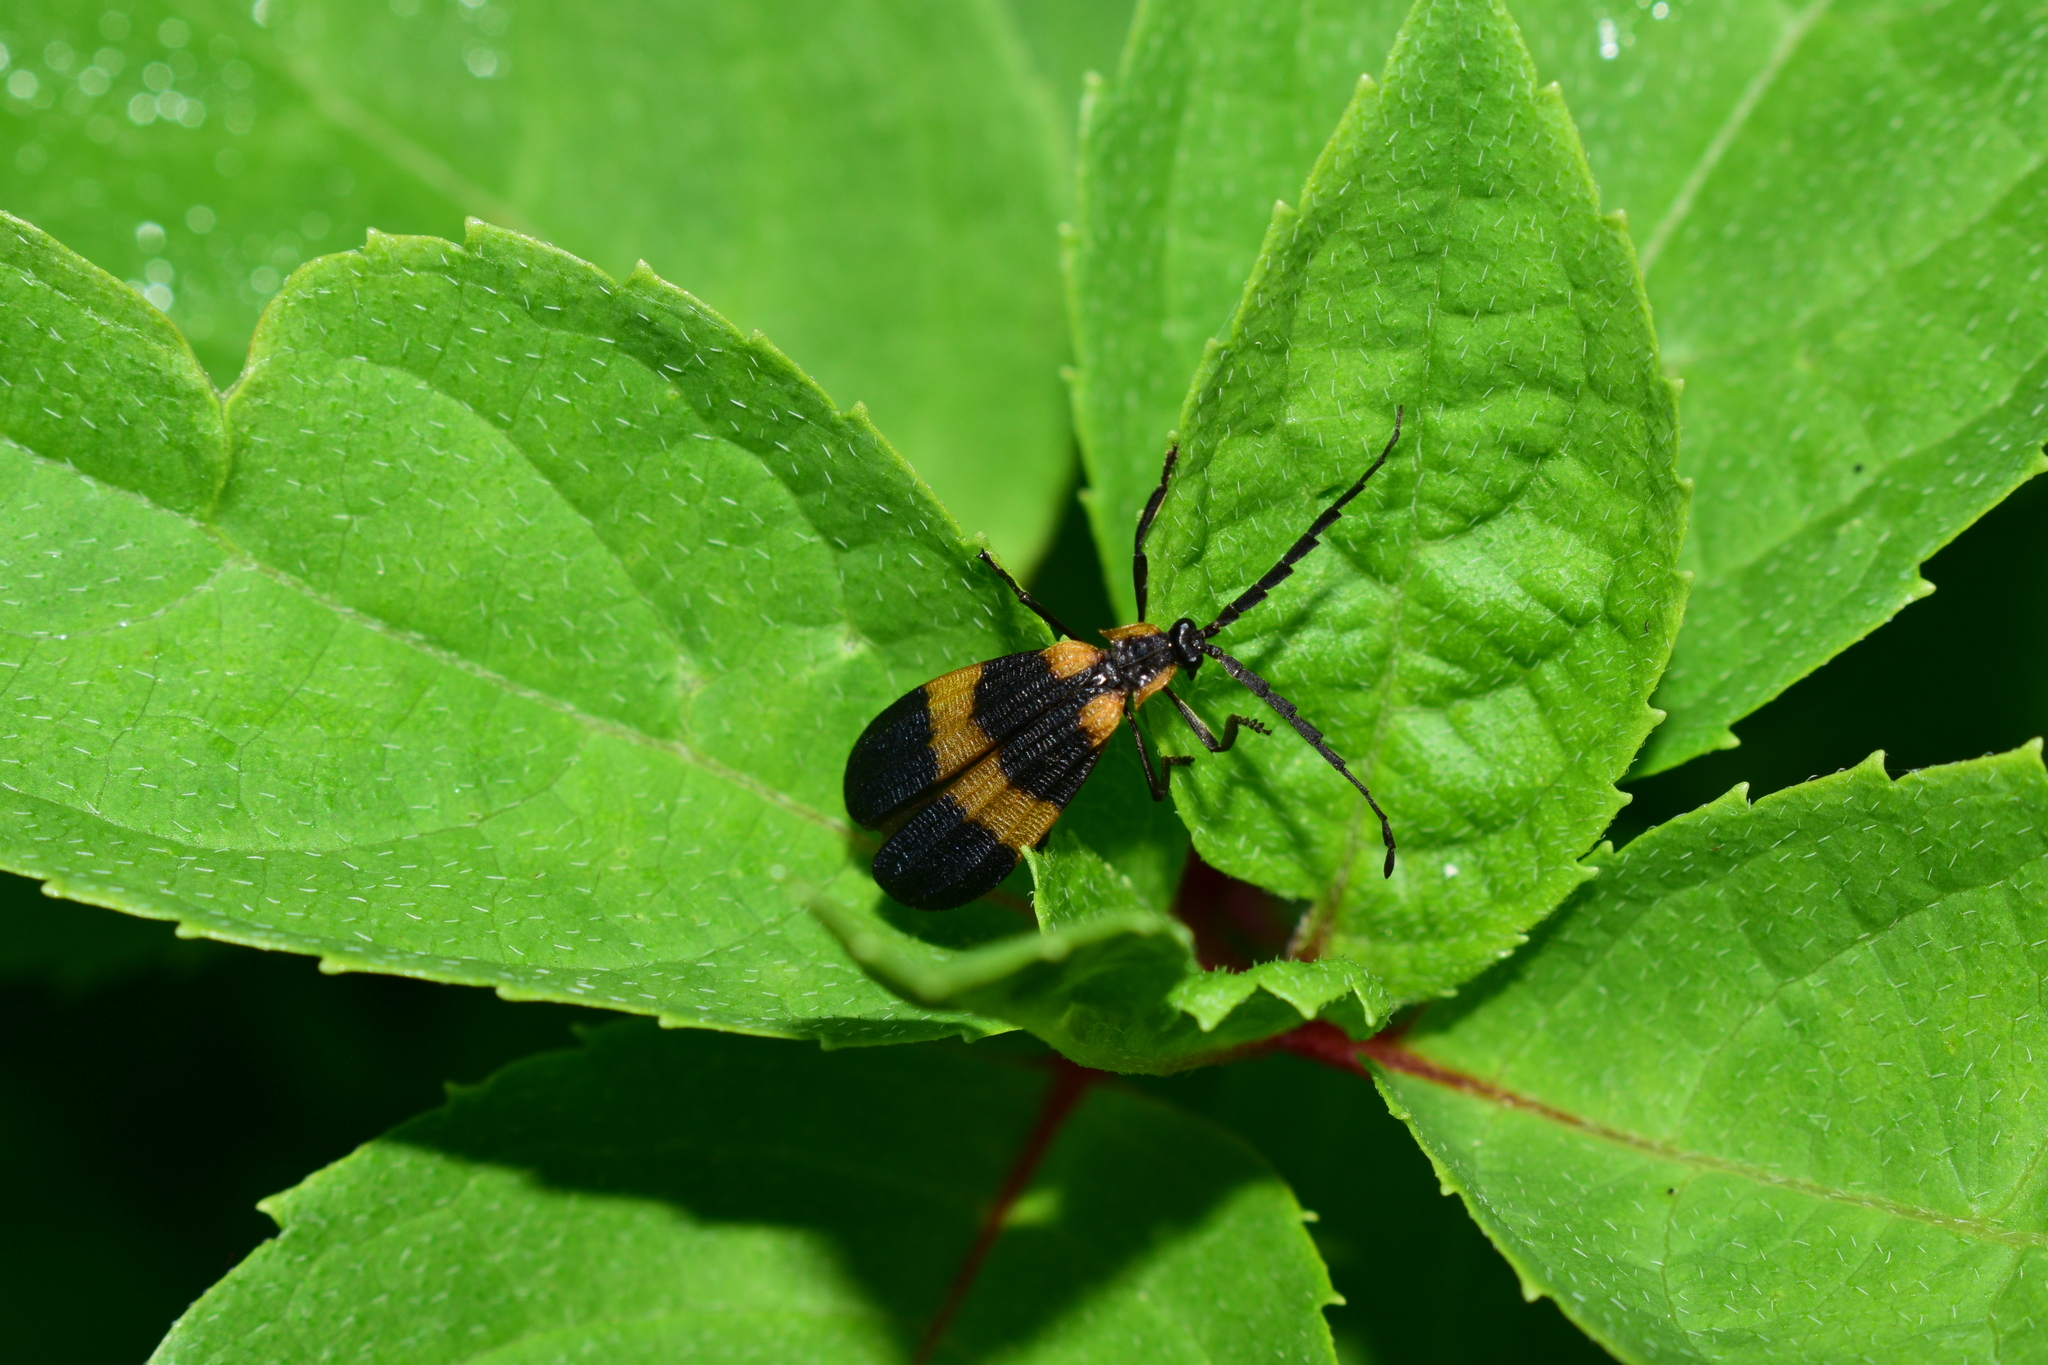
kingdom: Animalia
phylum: Arthropoda
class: Insecta
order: Coleoptera
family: Lycidae
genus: Calopteron
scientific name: Calopteron reticulatum
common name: Banded net-winged beetle
